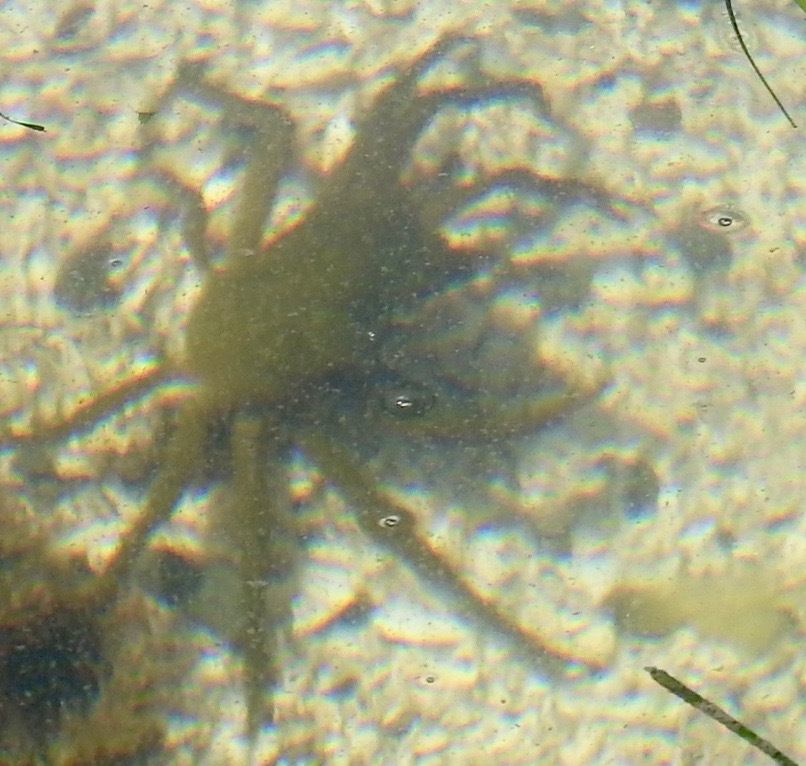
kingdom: Animalia
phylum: Arthropoda
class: Malacostraca
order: Decapoda
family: Epialtidae
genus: Pugettia
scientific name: Pugettia producta
